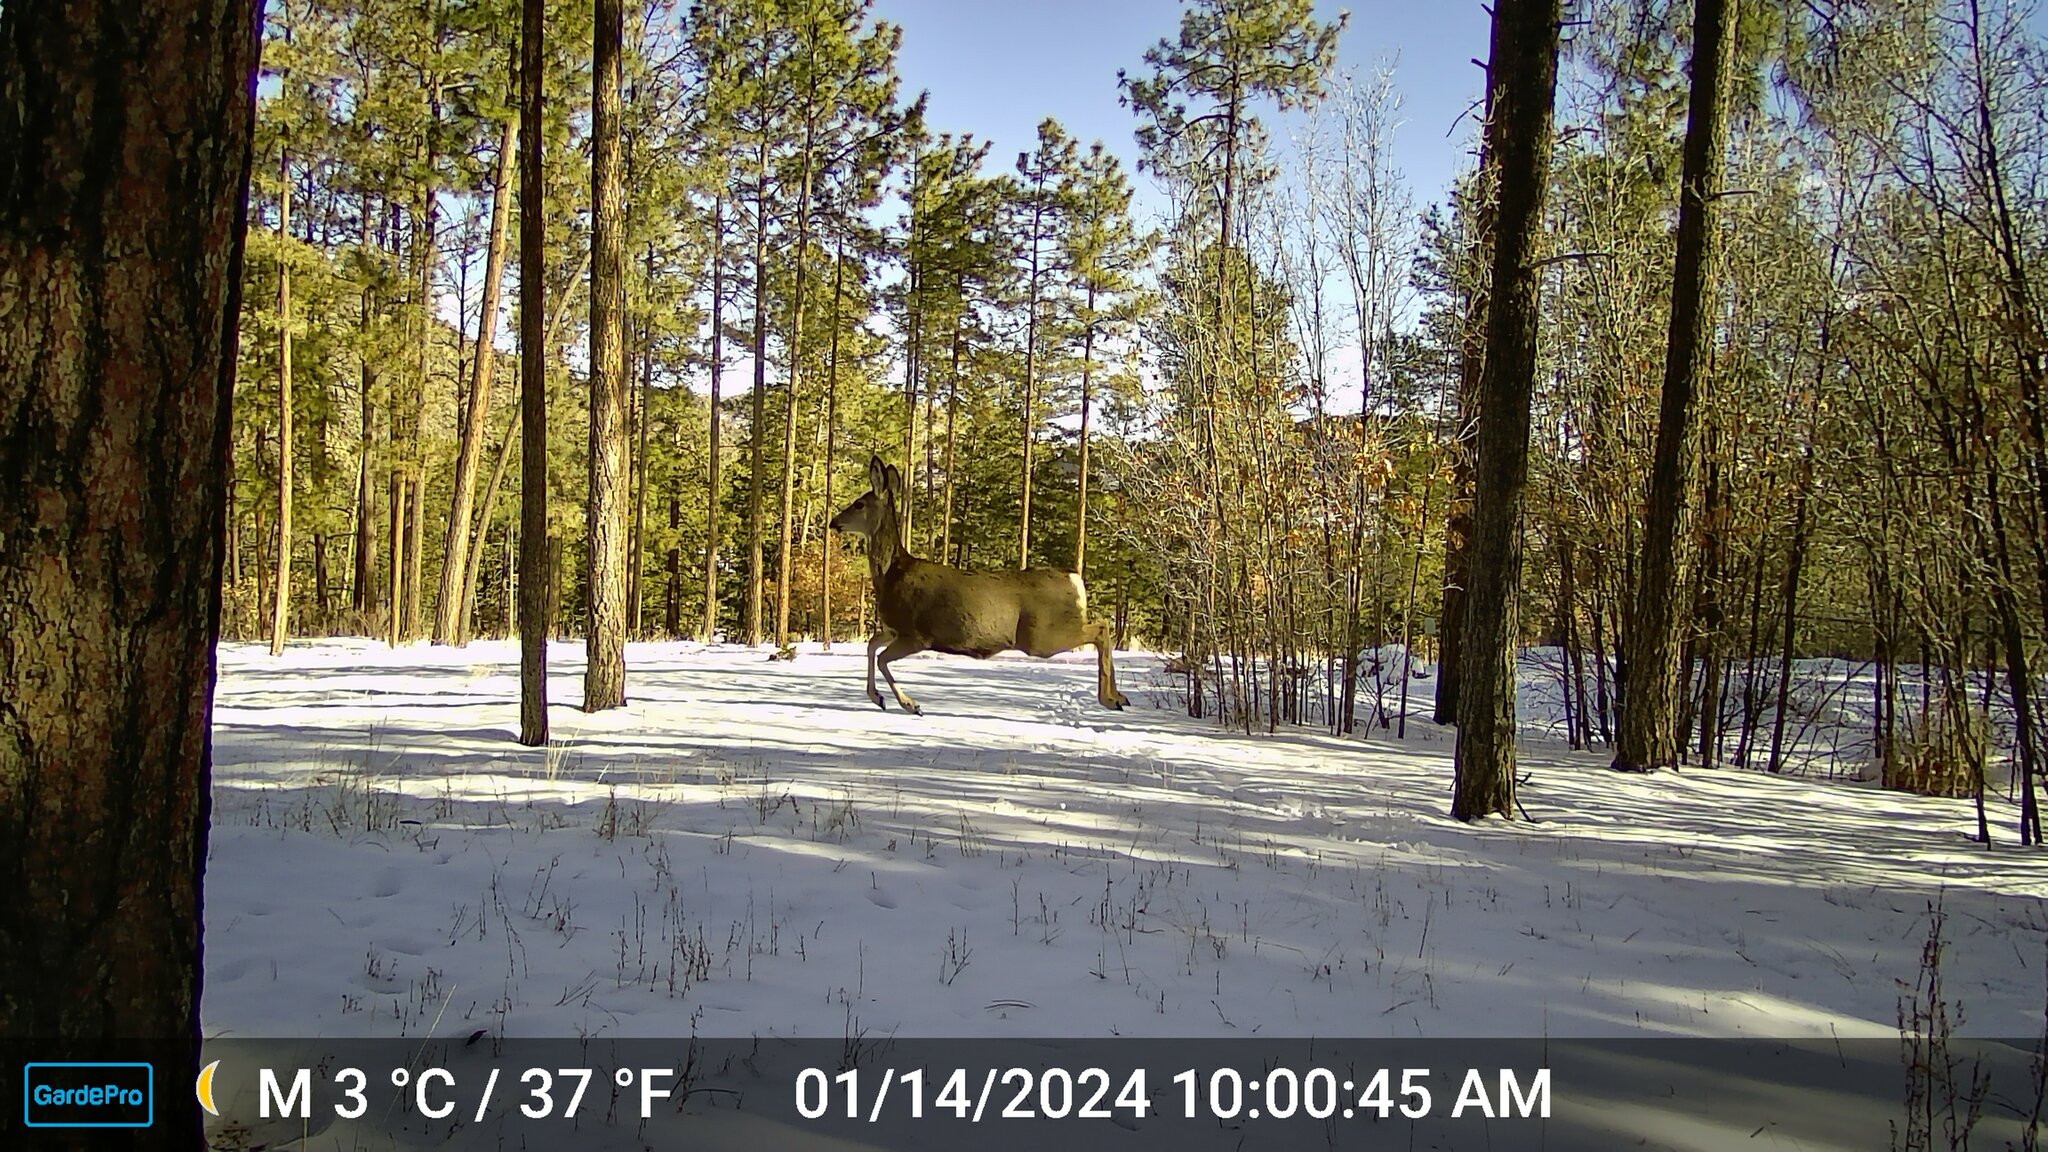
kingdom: Animalia
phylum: Chordata
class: Mammalia
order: Artiodactyla
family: Cervidae
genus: Odocoileus
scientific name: Odocoileus hemionus
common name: Mule deer
